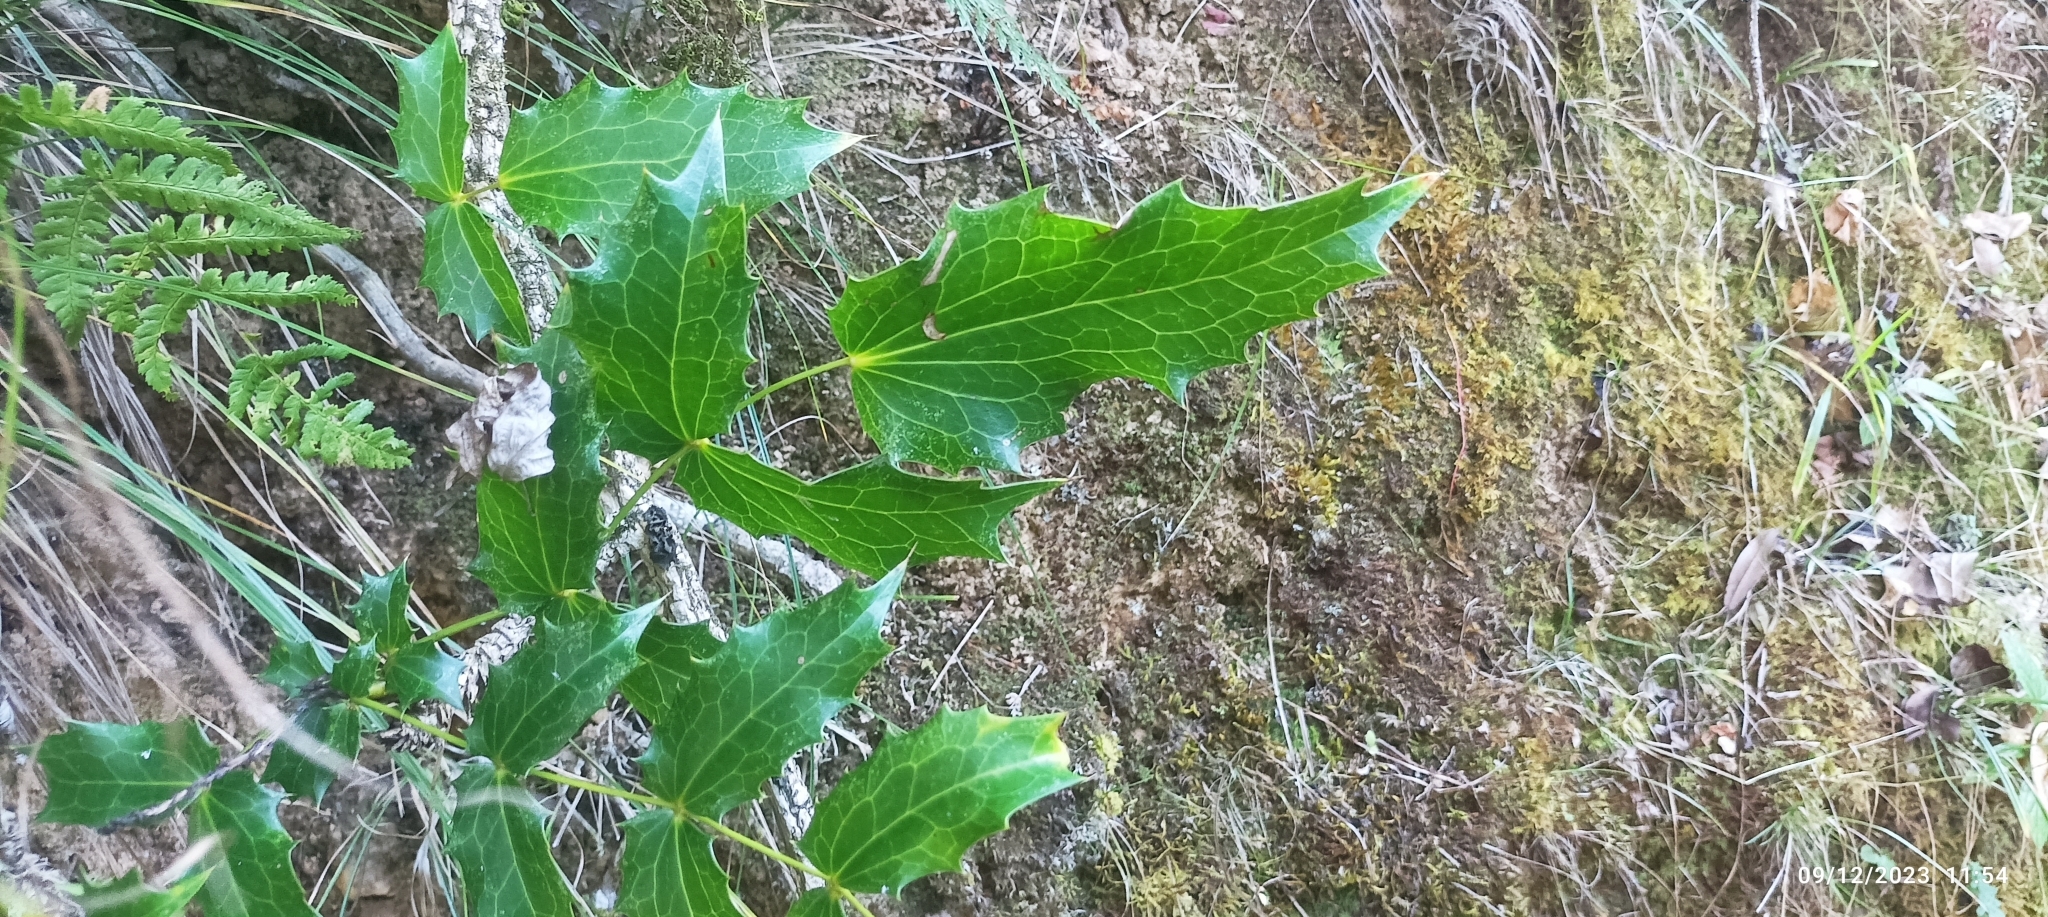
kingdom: Plantae
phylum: Tracheophyta
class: Magnoliopsida
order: Ranunculales
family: Berberidaceae
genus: Mahonia
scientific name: Mahonia napaulensis
